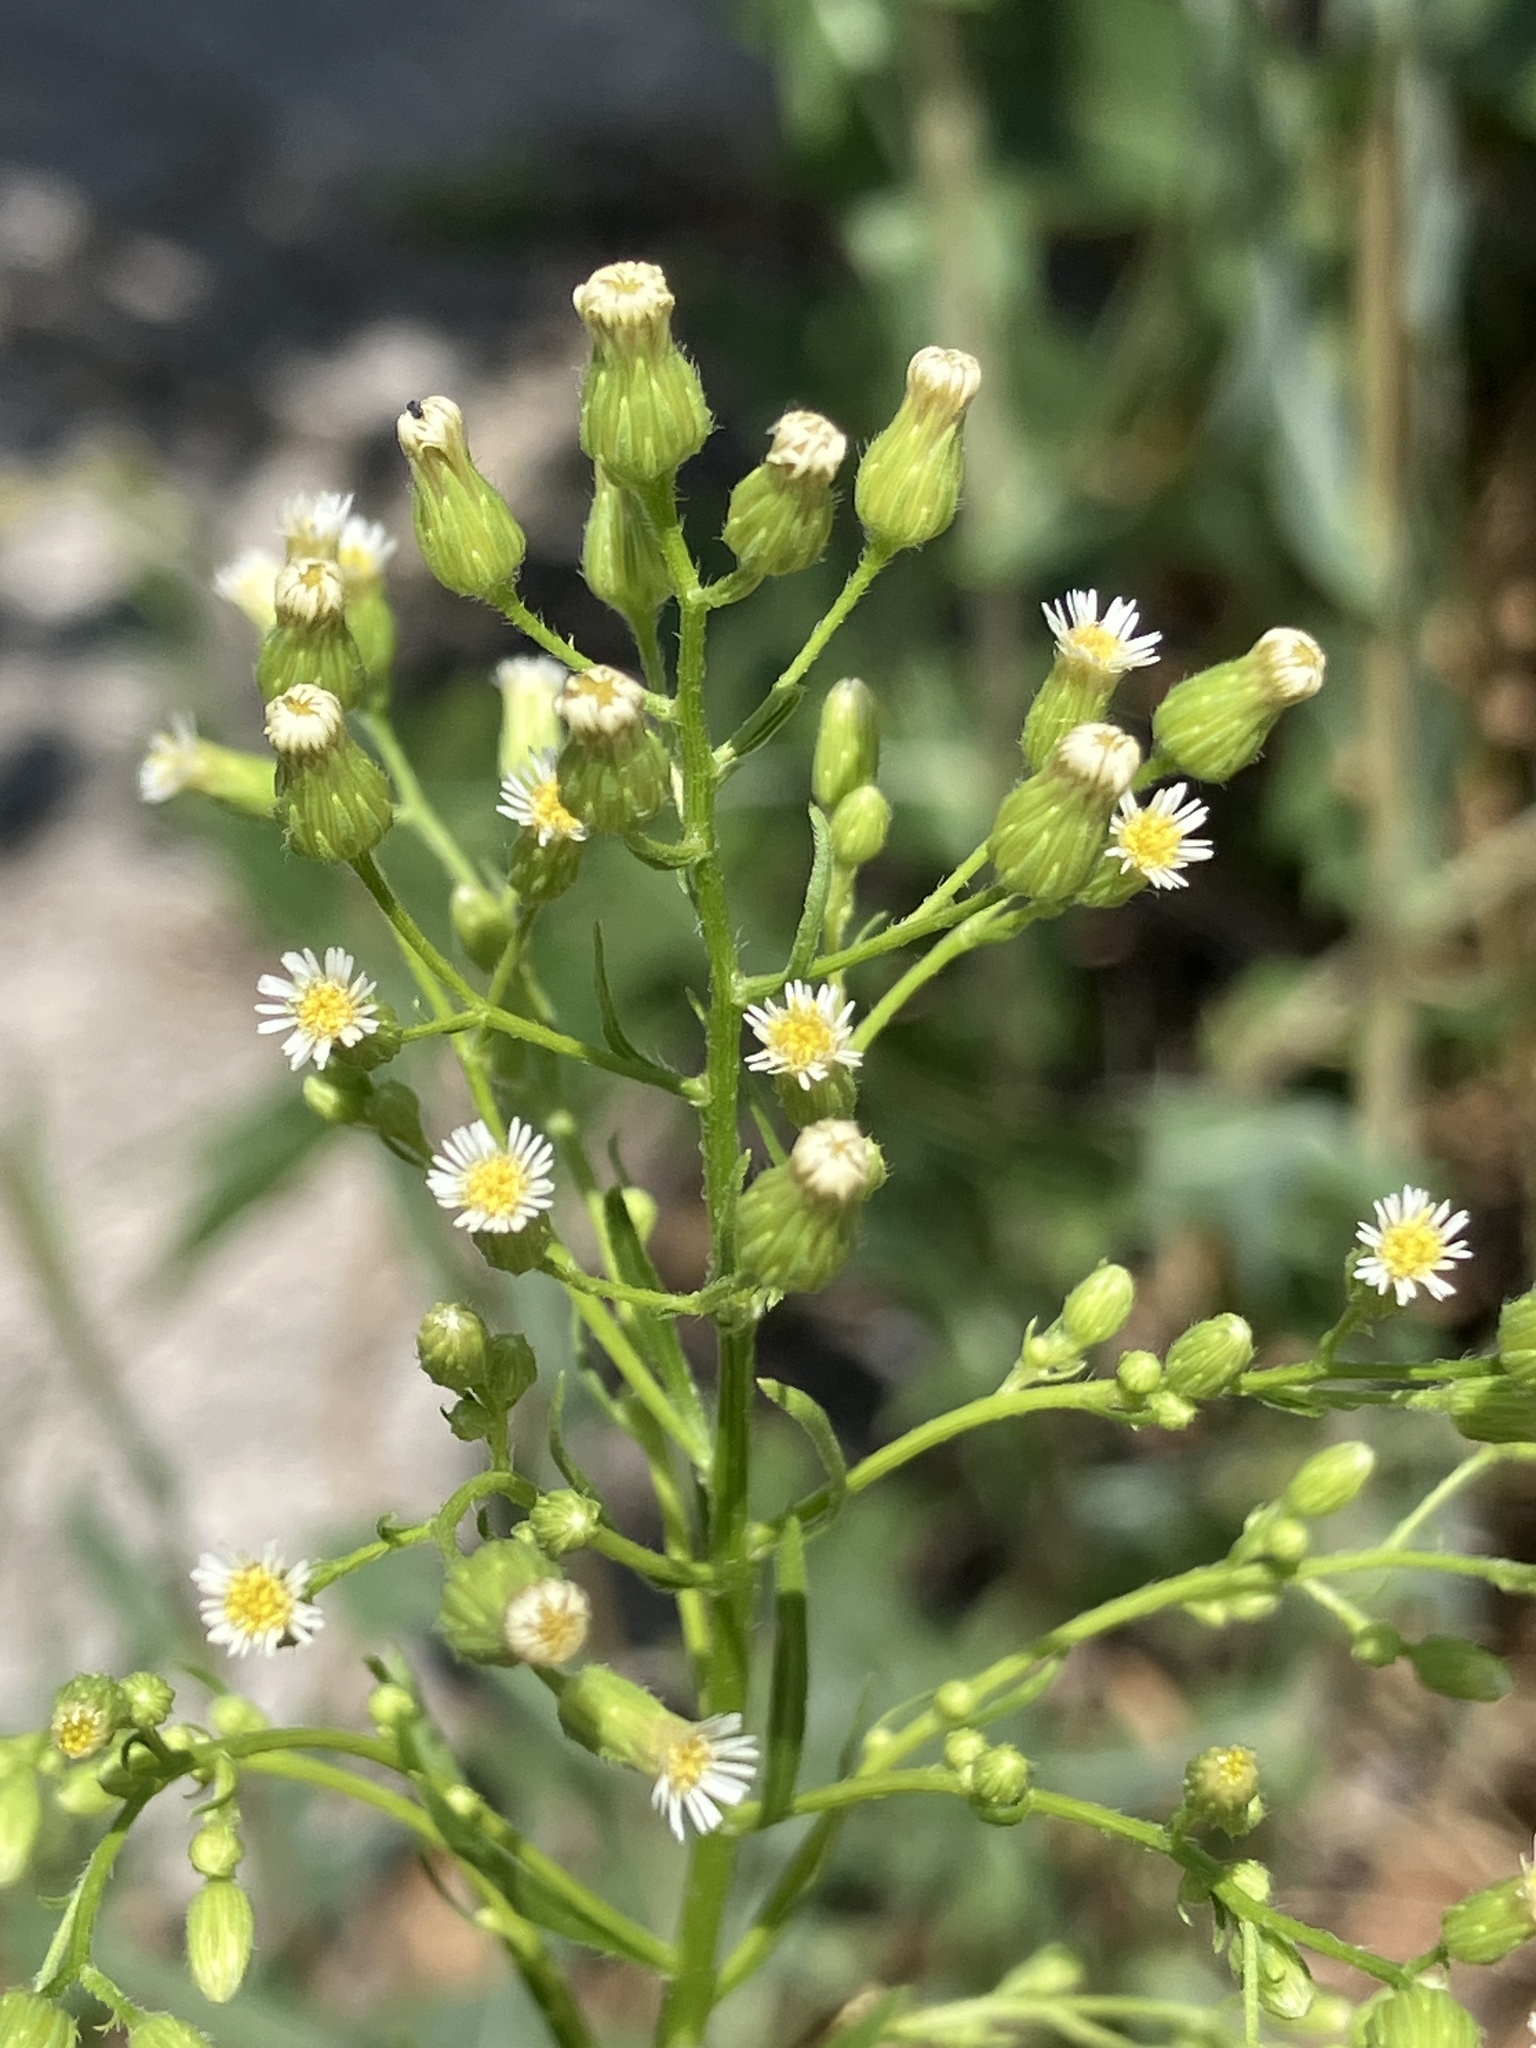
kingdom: Plantae
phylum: Tracheophyta
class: Magnoliopsida
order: Asterales
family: Asteraceae
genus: Erigeron
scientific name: Erigeron canadensis
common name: Canadian fleabane
